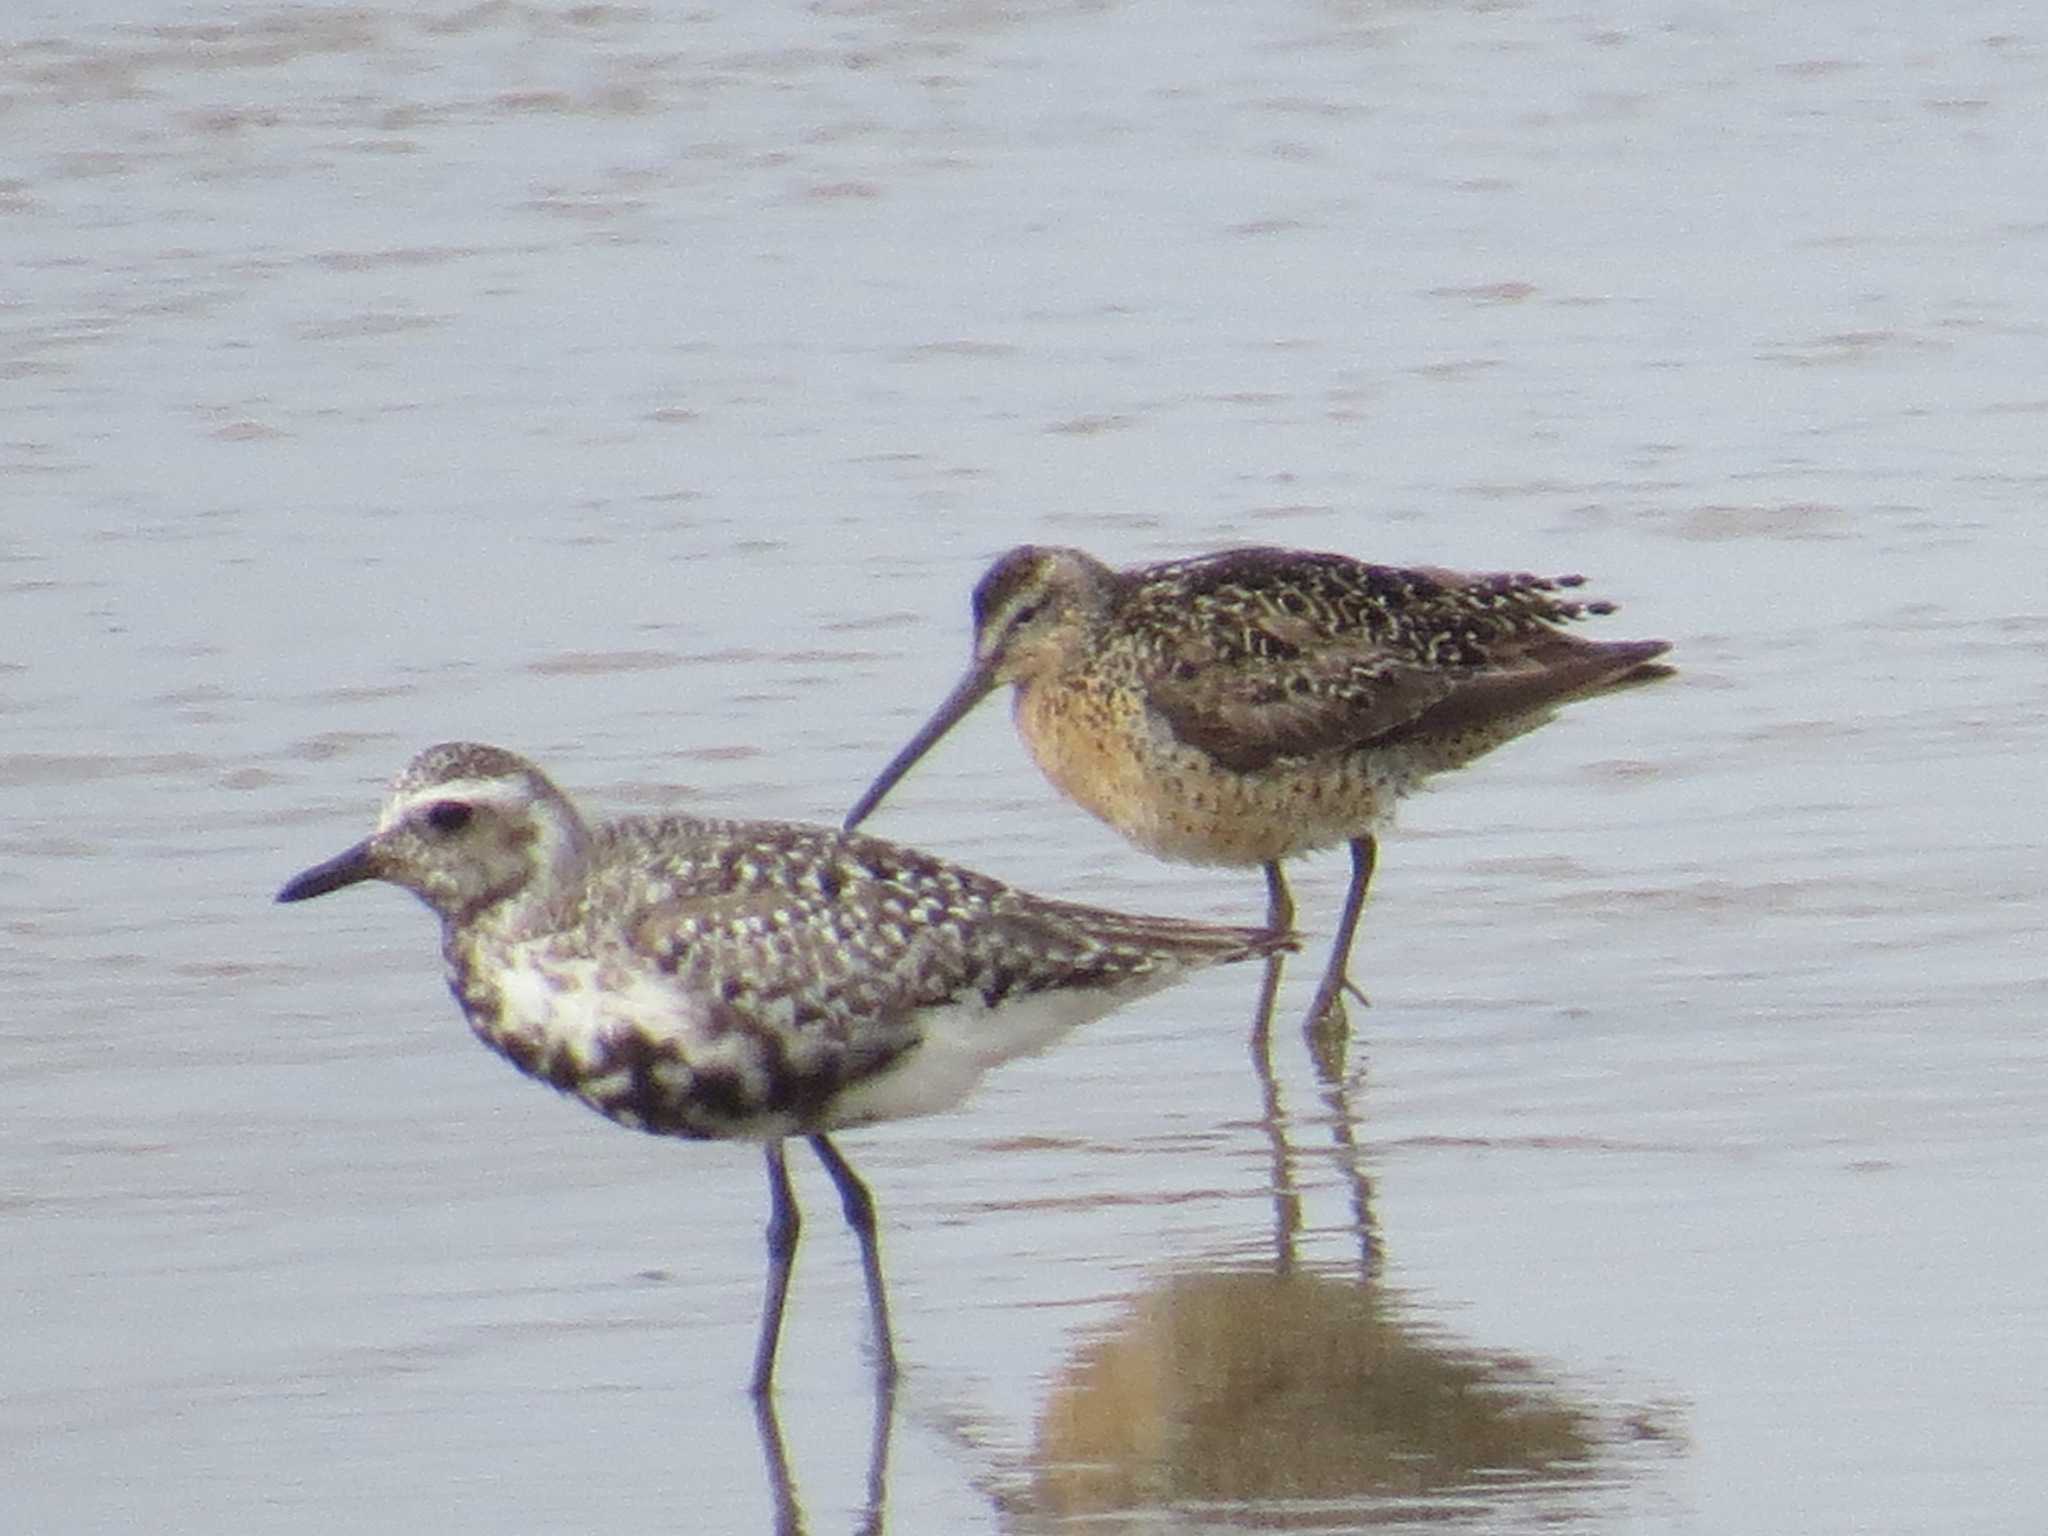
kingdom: Animalia
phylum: Chordata
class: Aves
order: Charadriiformes
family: Charadriidae
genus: Pluvialis
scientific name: Pluvialis squatarola
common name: Grey plover
